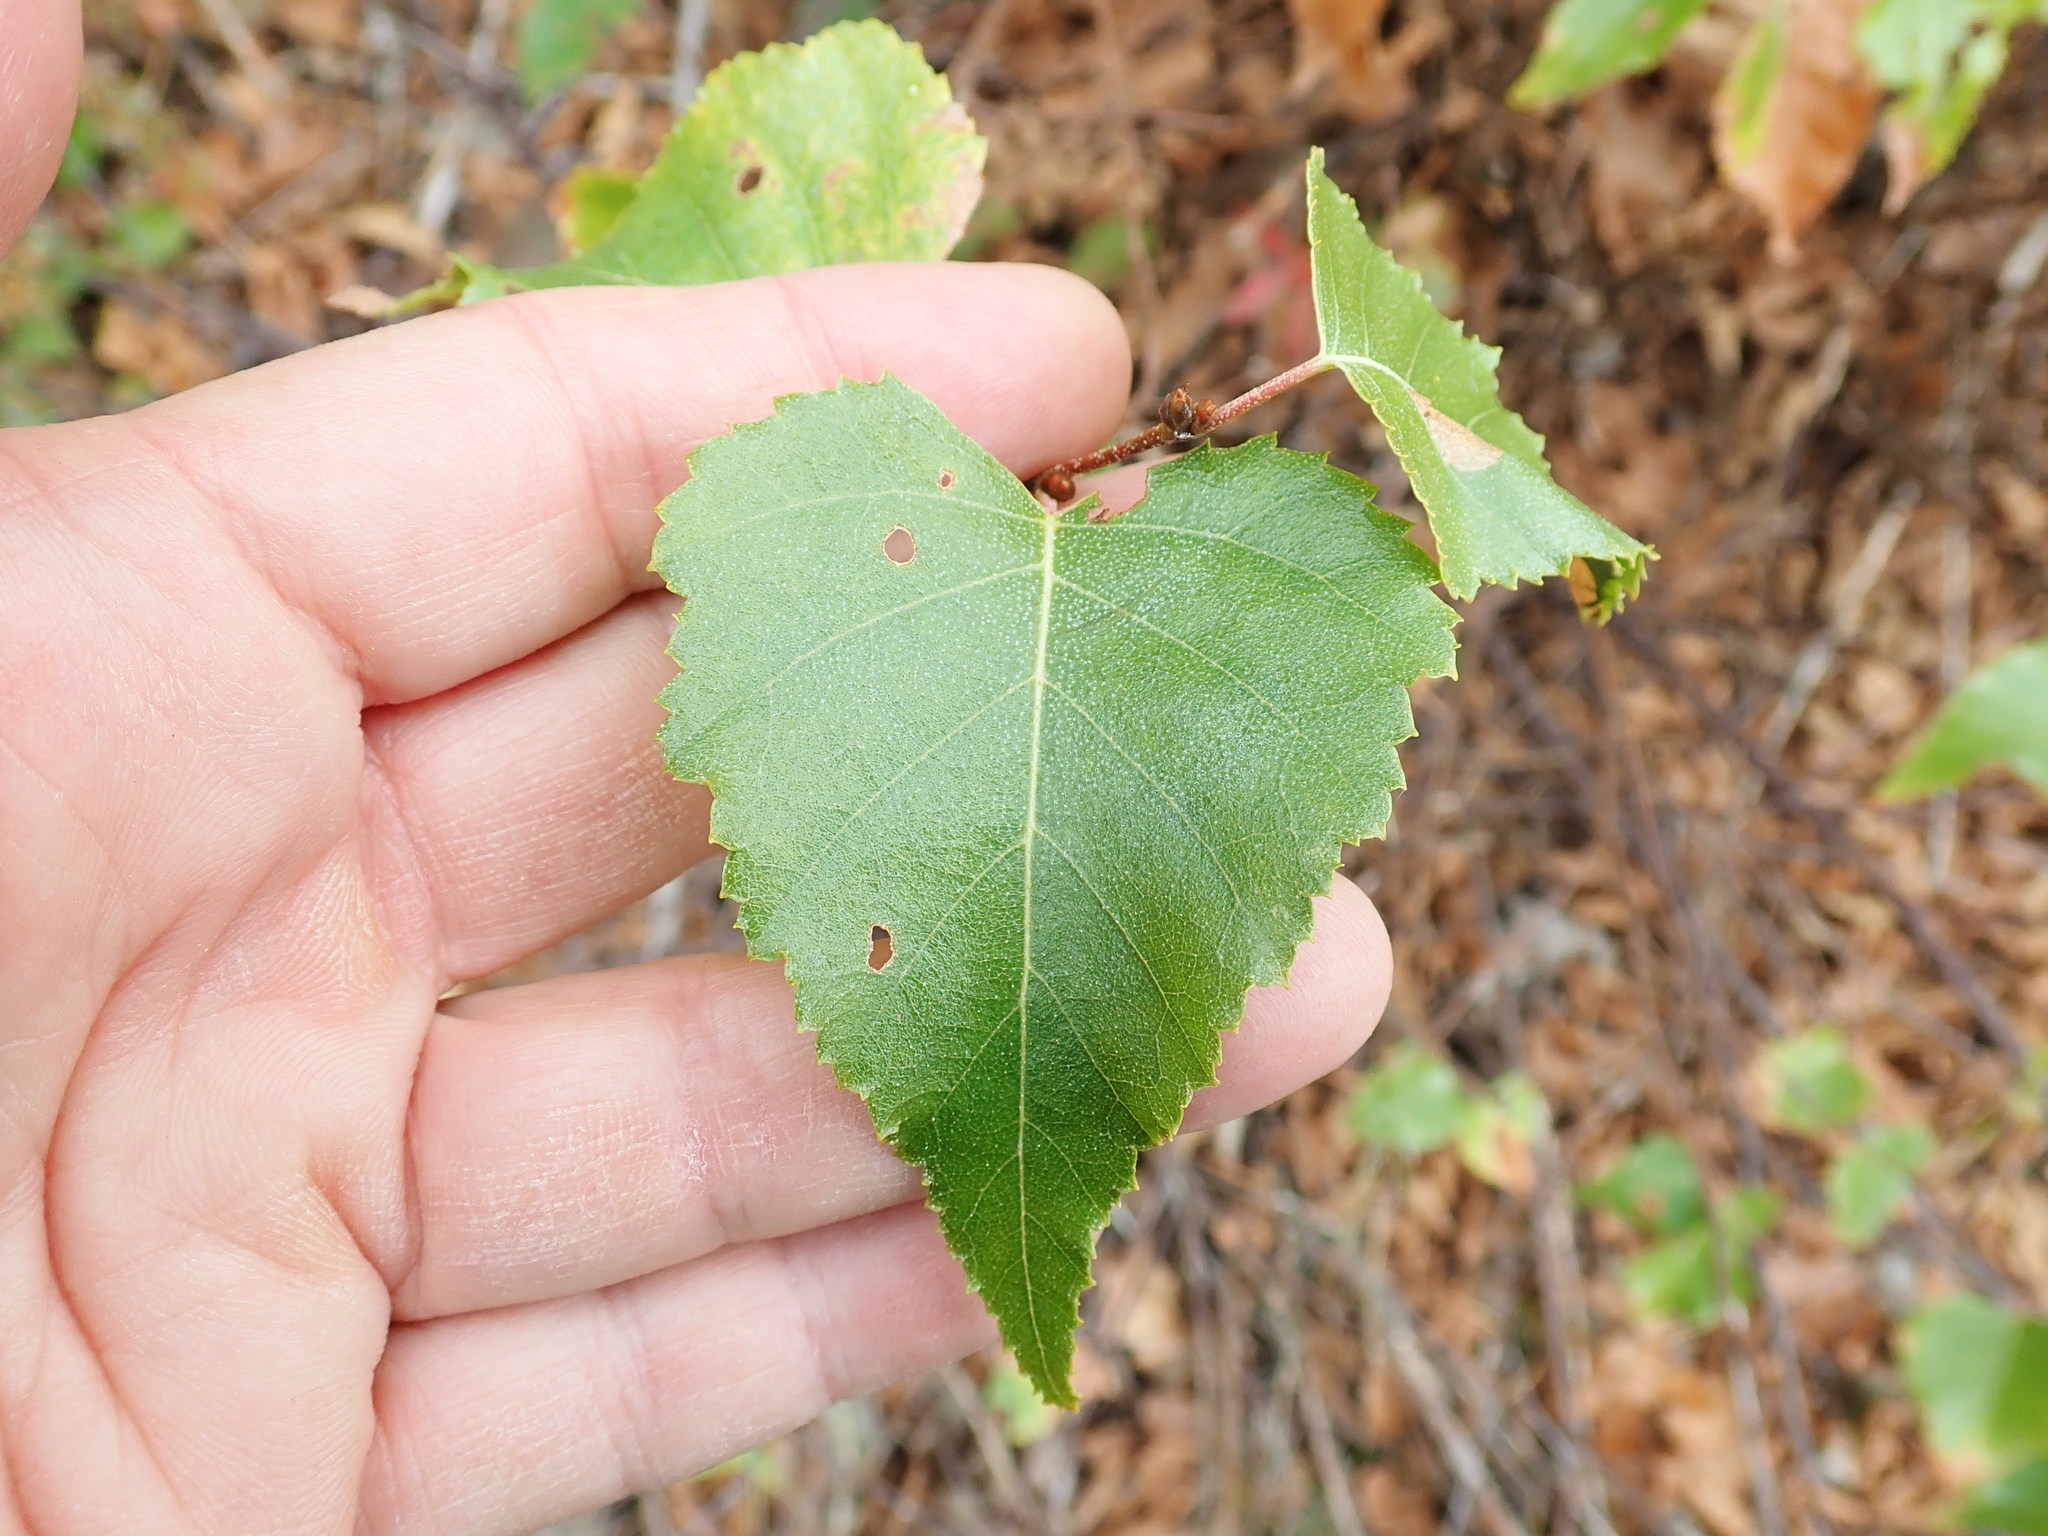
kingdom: Plantae
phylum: Tracheophyta
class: Magnoliopsida
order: Fagales
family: Betulaceae
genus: Betula
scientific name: Betula populifolia
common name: Fire birch
